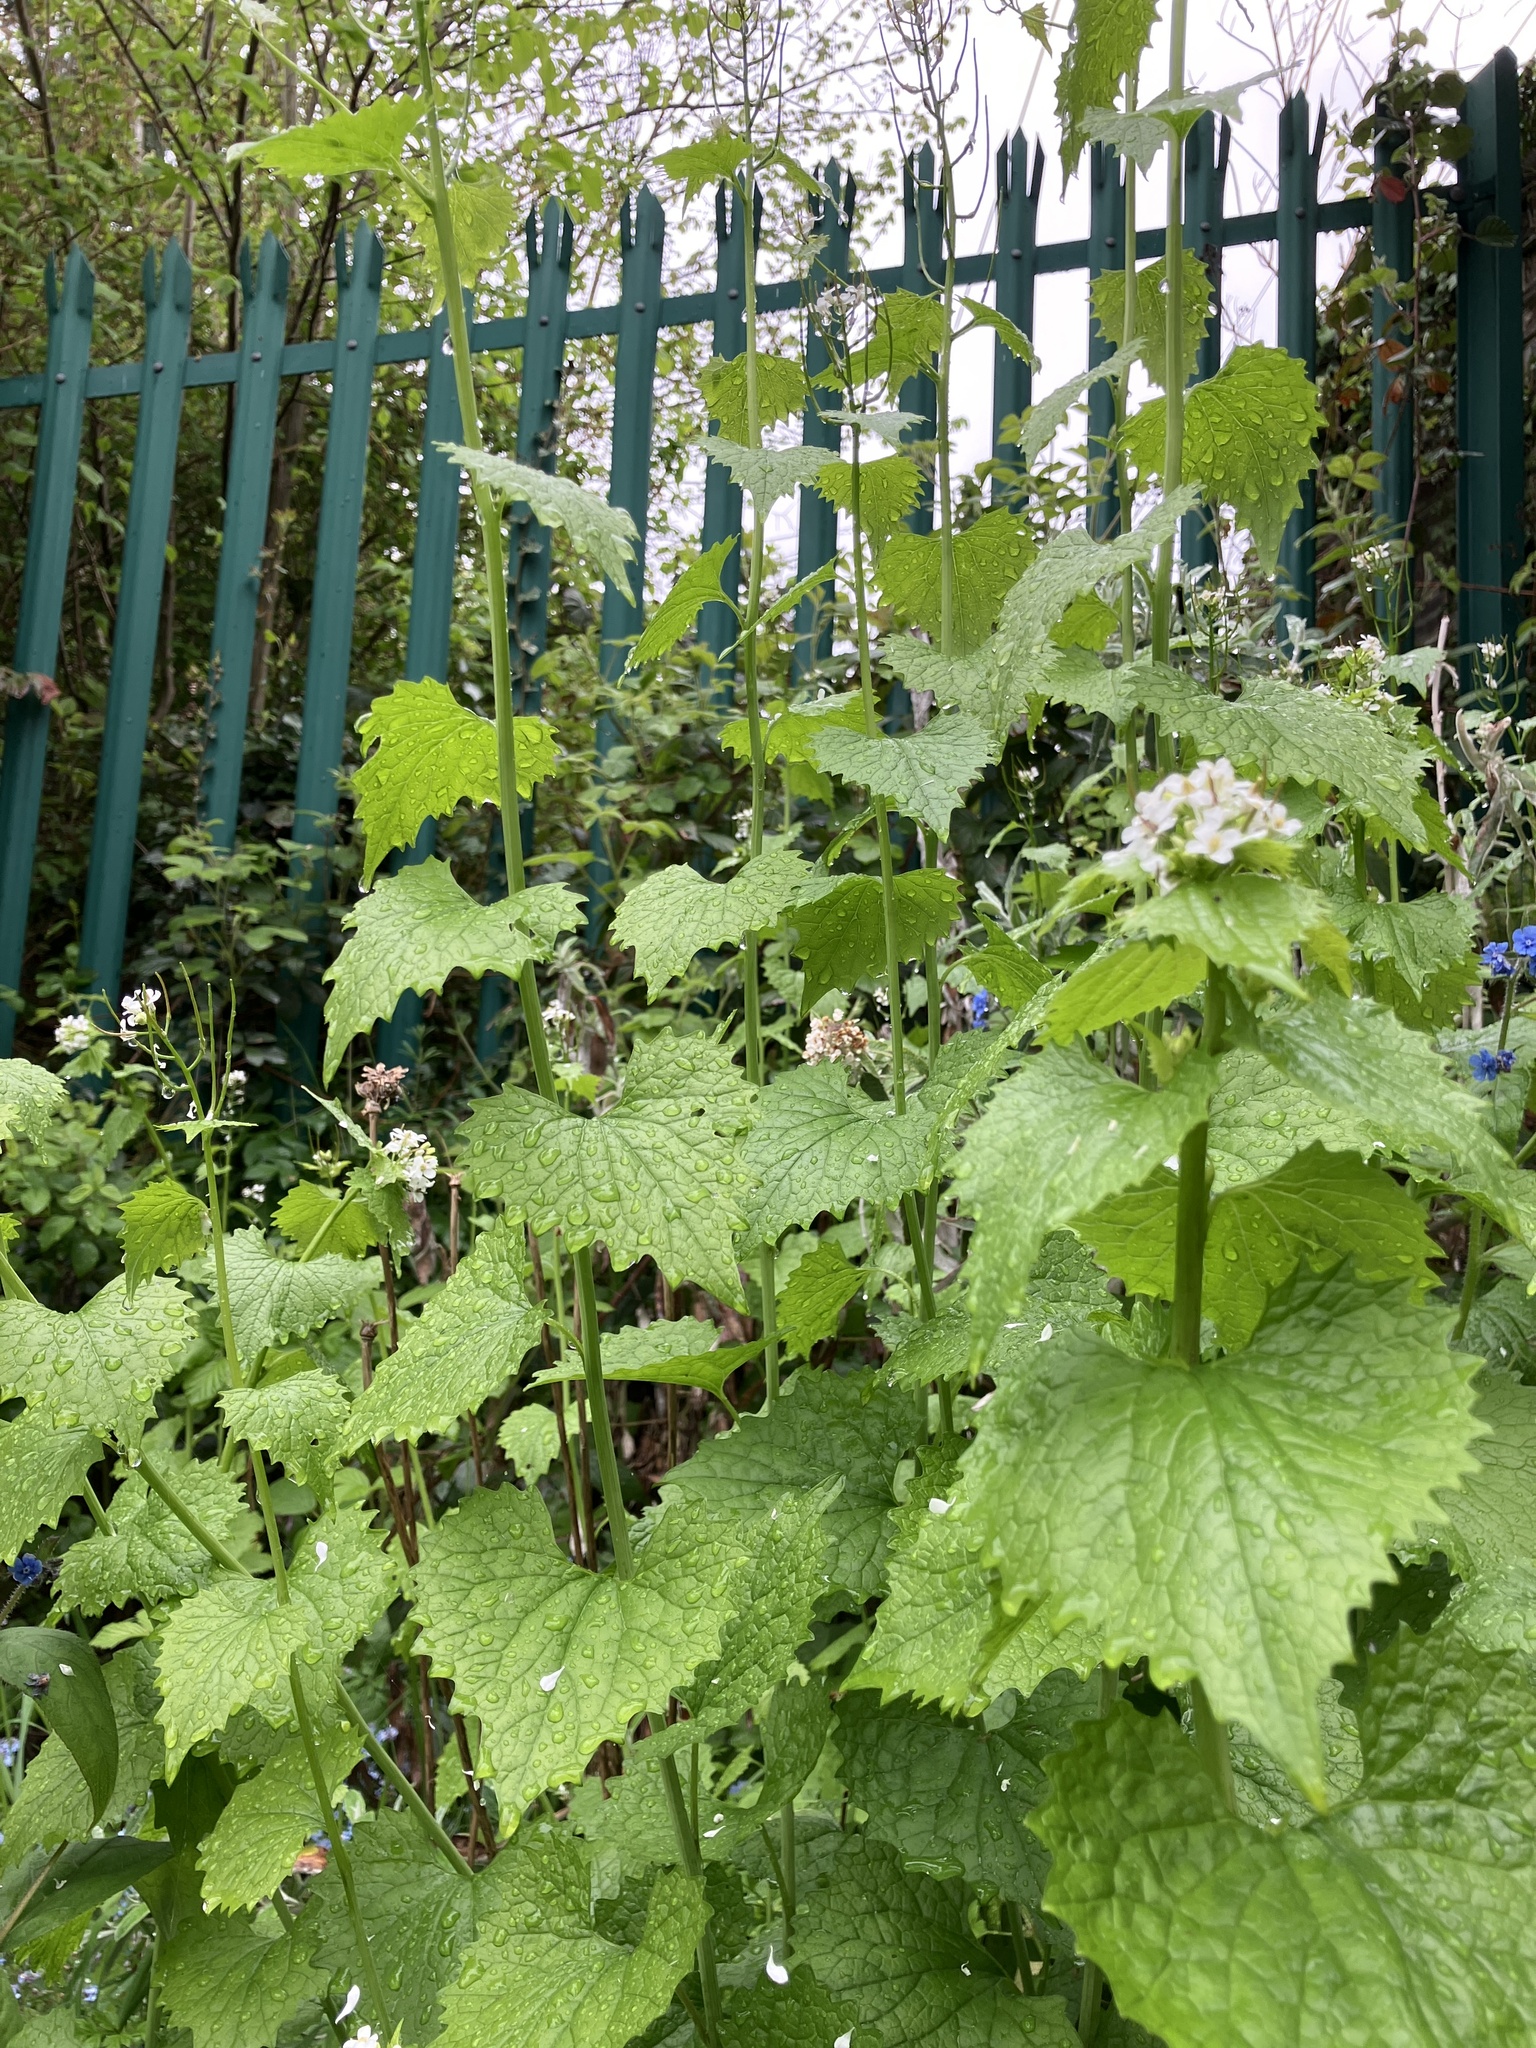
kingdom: Plantae
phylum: Tracheophyta
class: Magnoliopsida
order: Brassicales
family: Brassicaceae
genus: Alliaria
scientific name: Alliaria petiolata
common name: Garlic mustard
